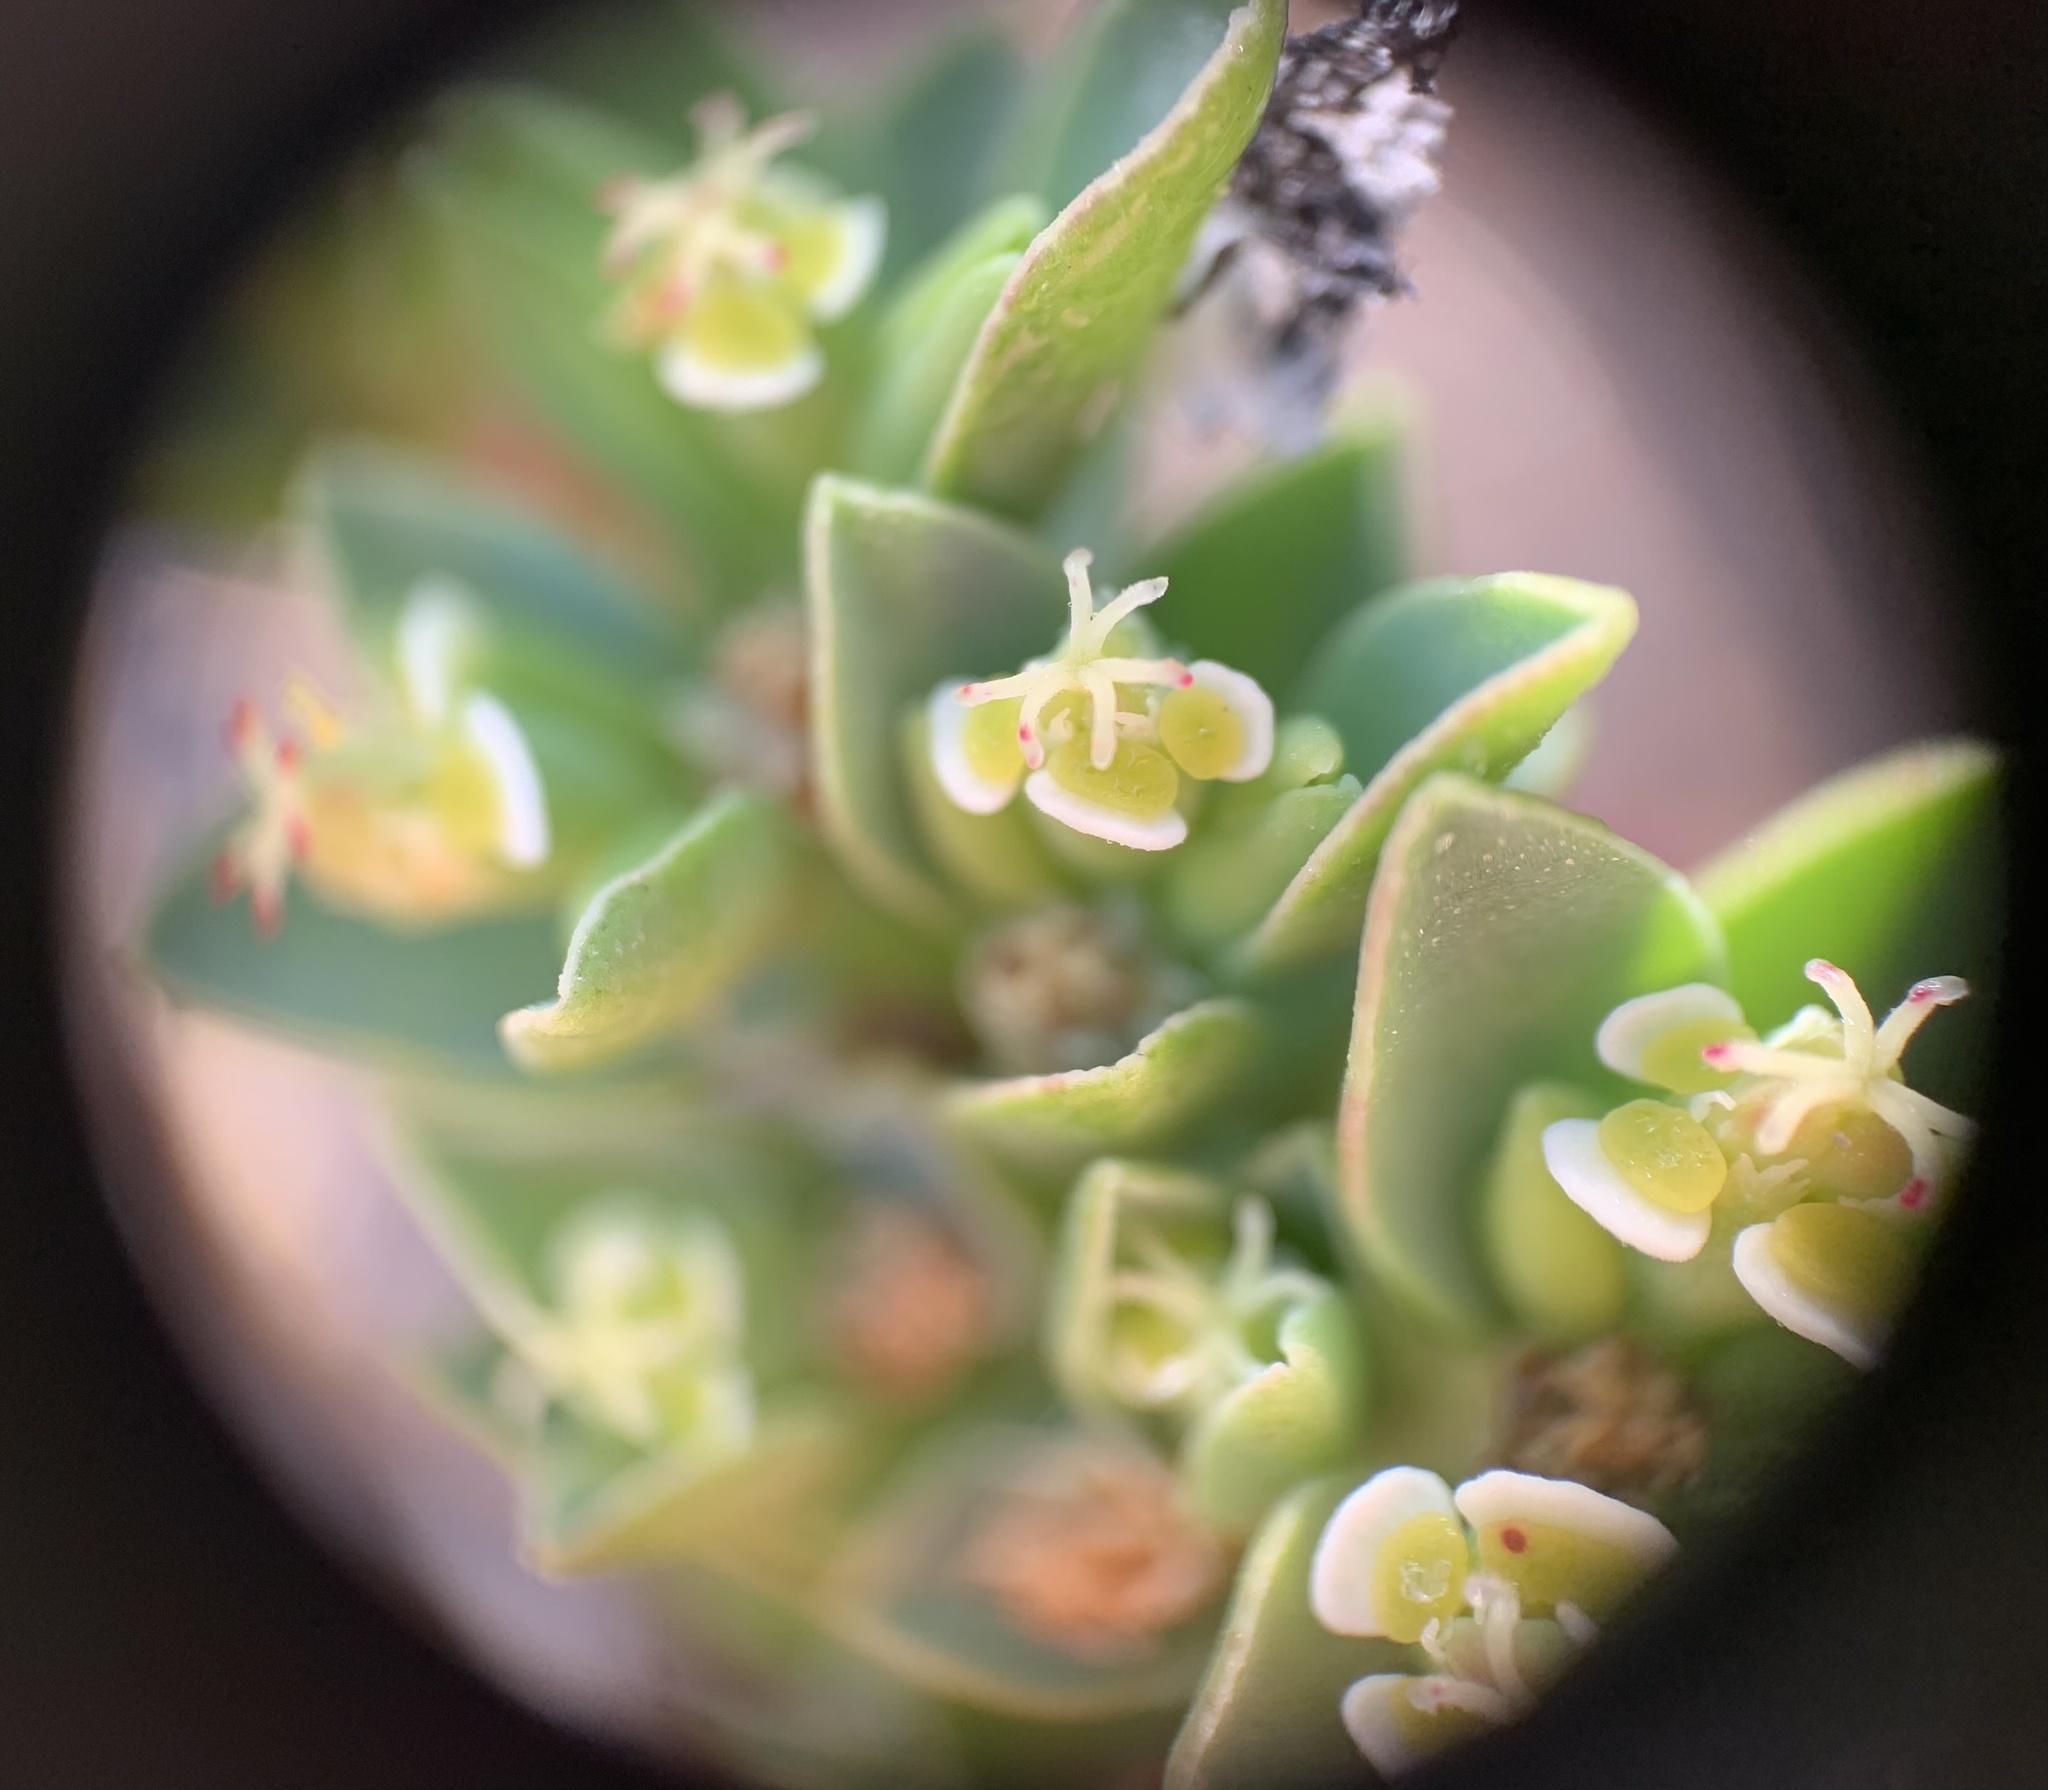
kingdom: Plantae
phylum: Tracheophyta
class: Magnoliopsida
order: Malpighiales
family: Euphorbiaceae
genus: Euphorbia
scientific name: Euphorbia mesembryanthemifolia
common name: Coastal beach sandmat
